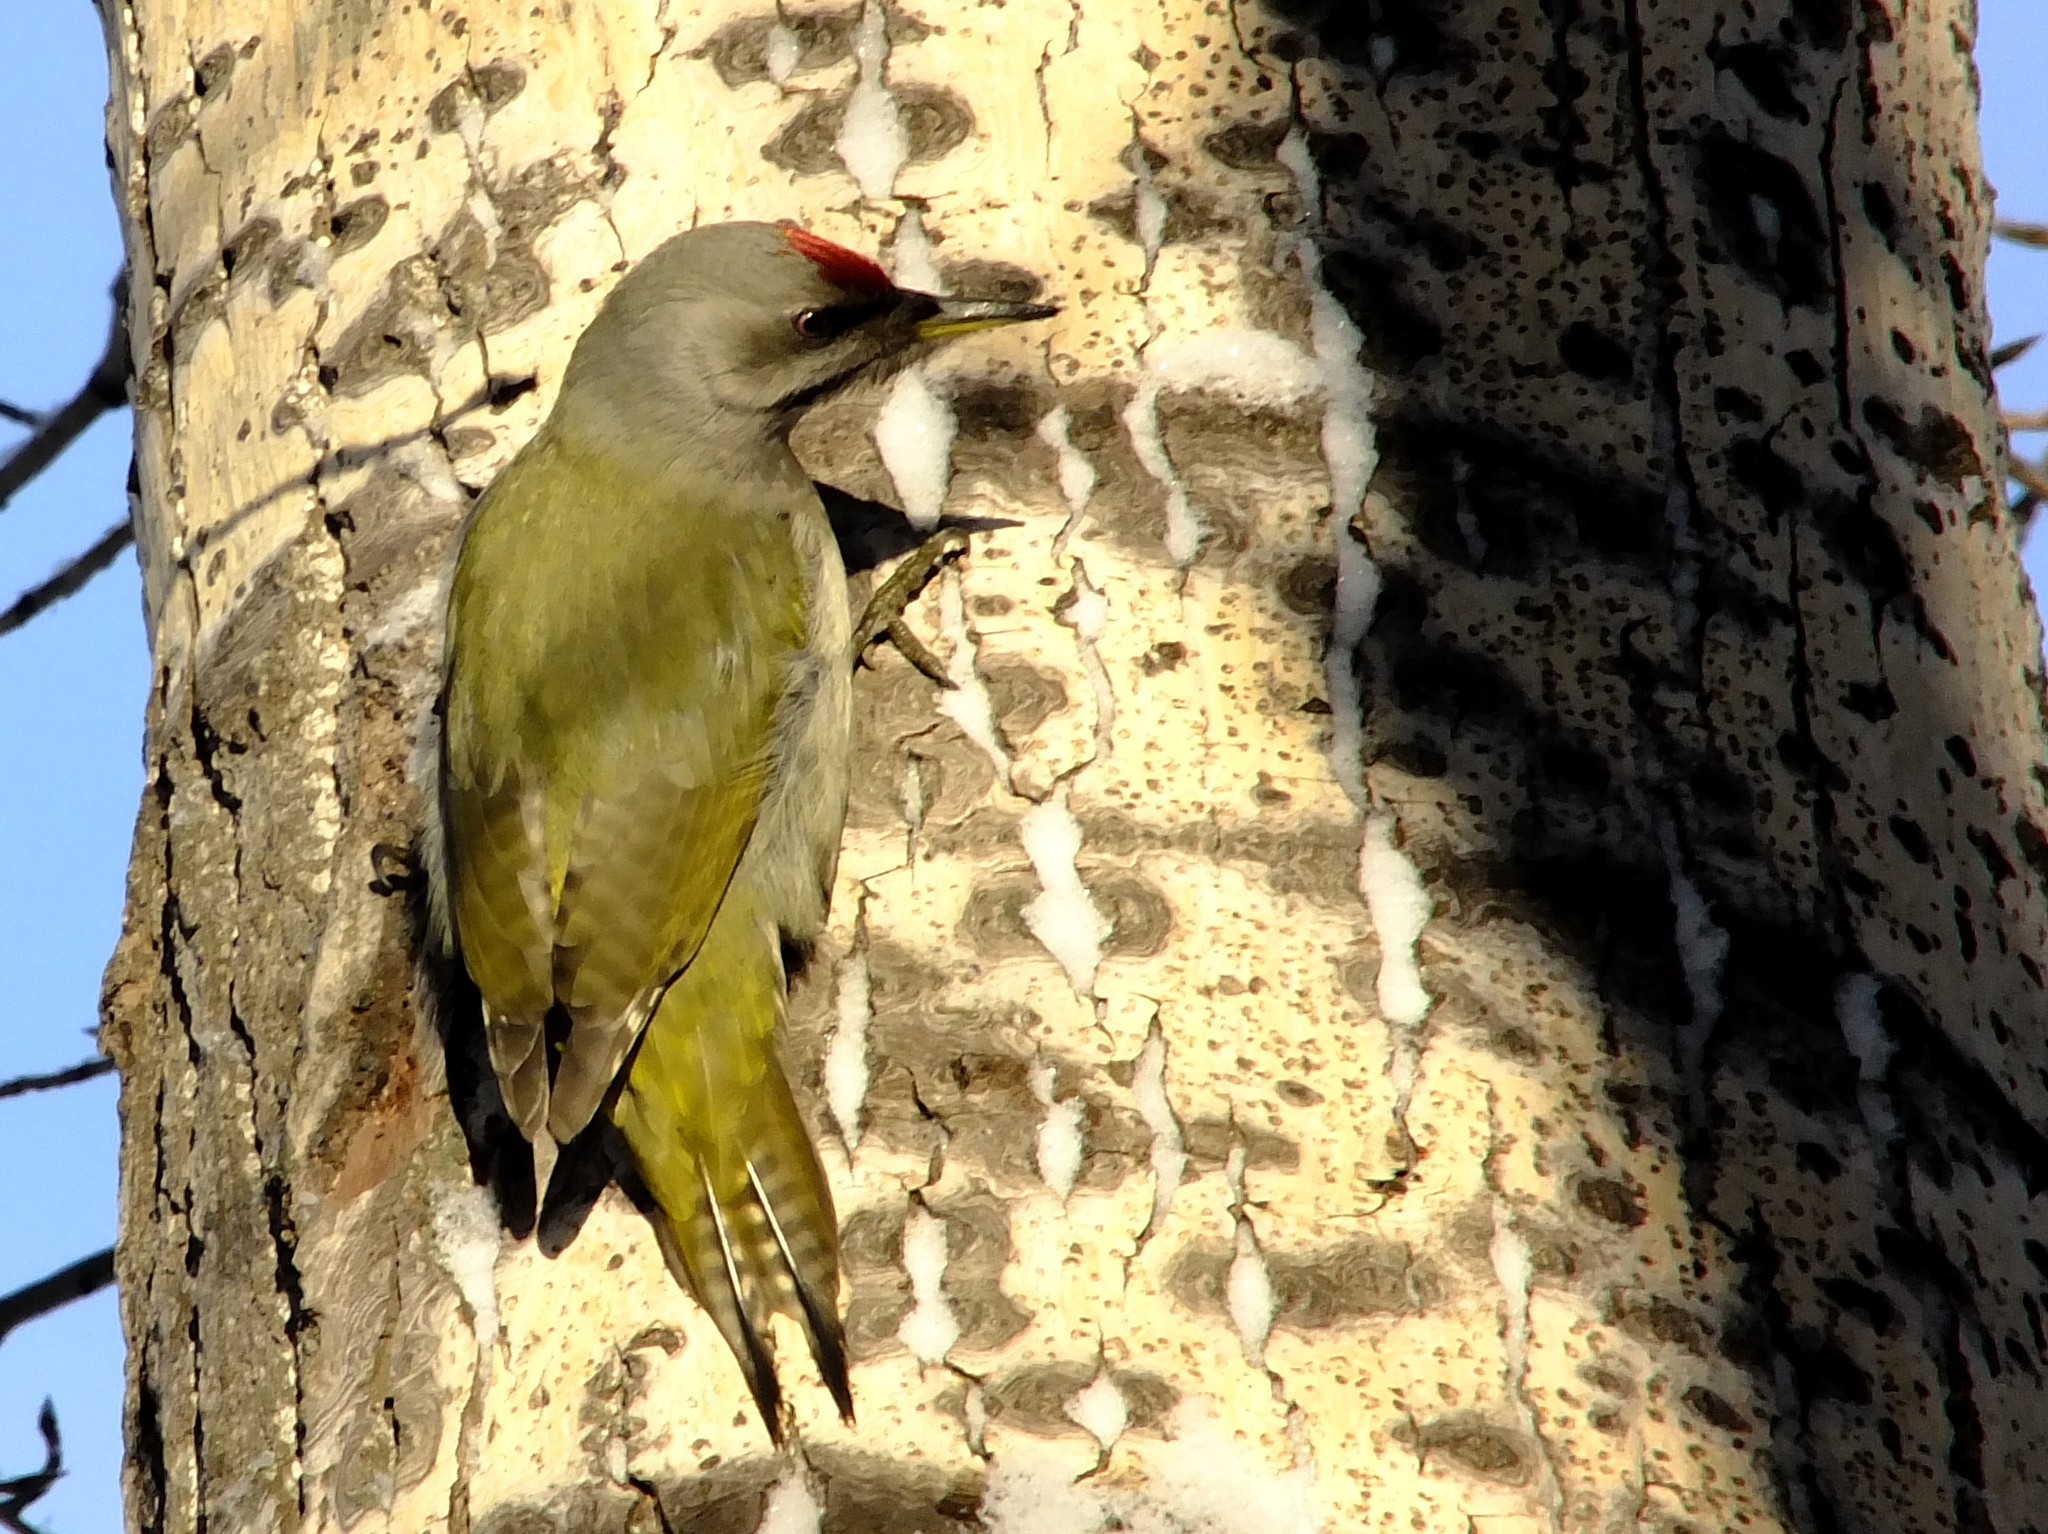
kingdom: Animalia
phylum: Chordata
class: Aves
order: Piciformes
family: Picidae
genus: Picus
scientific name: Picus canus
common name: Grey-headed woodpecker
